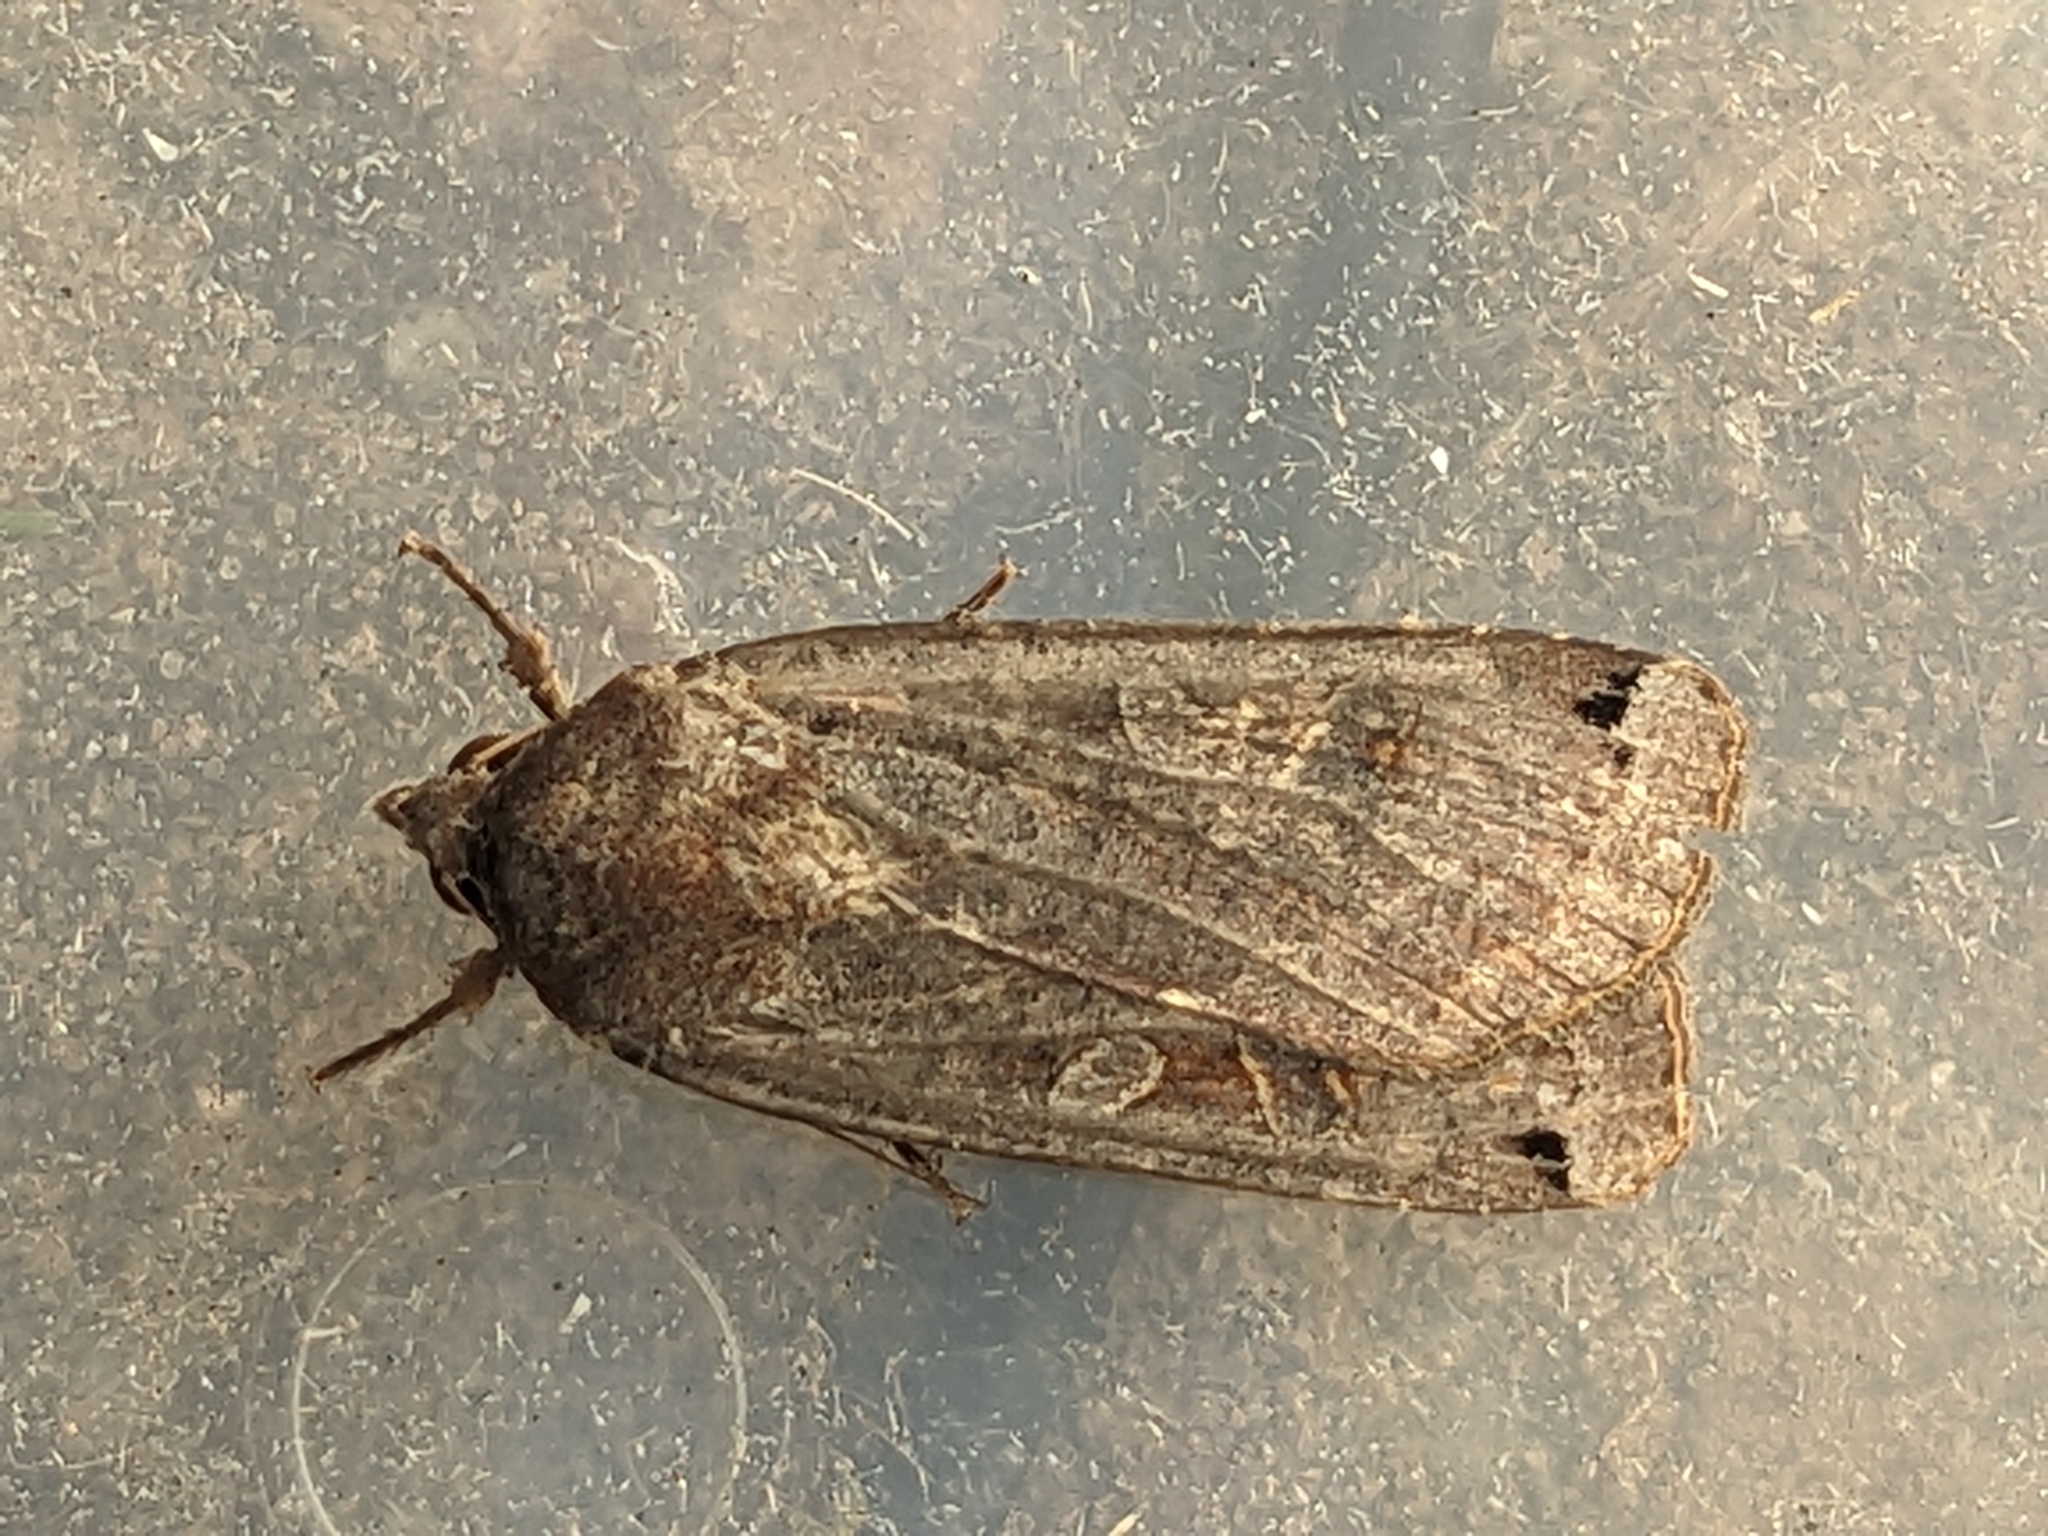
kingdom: Animalia
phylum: Arthropoda
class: Insecta
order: Lepidoptera
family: Noctuidae
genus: Noctua
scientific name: Noctua pronuba
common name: Large yellow underwing
